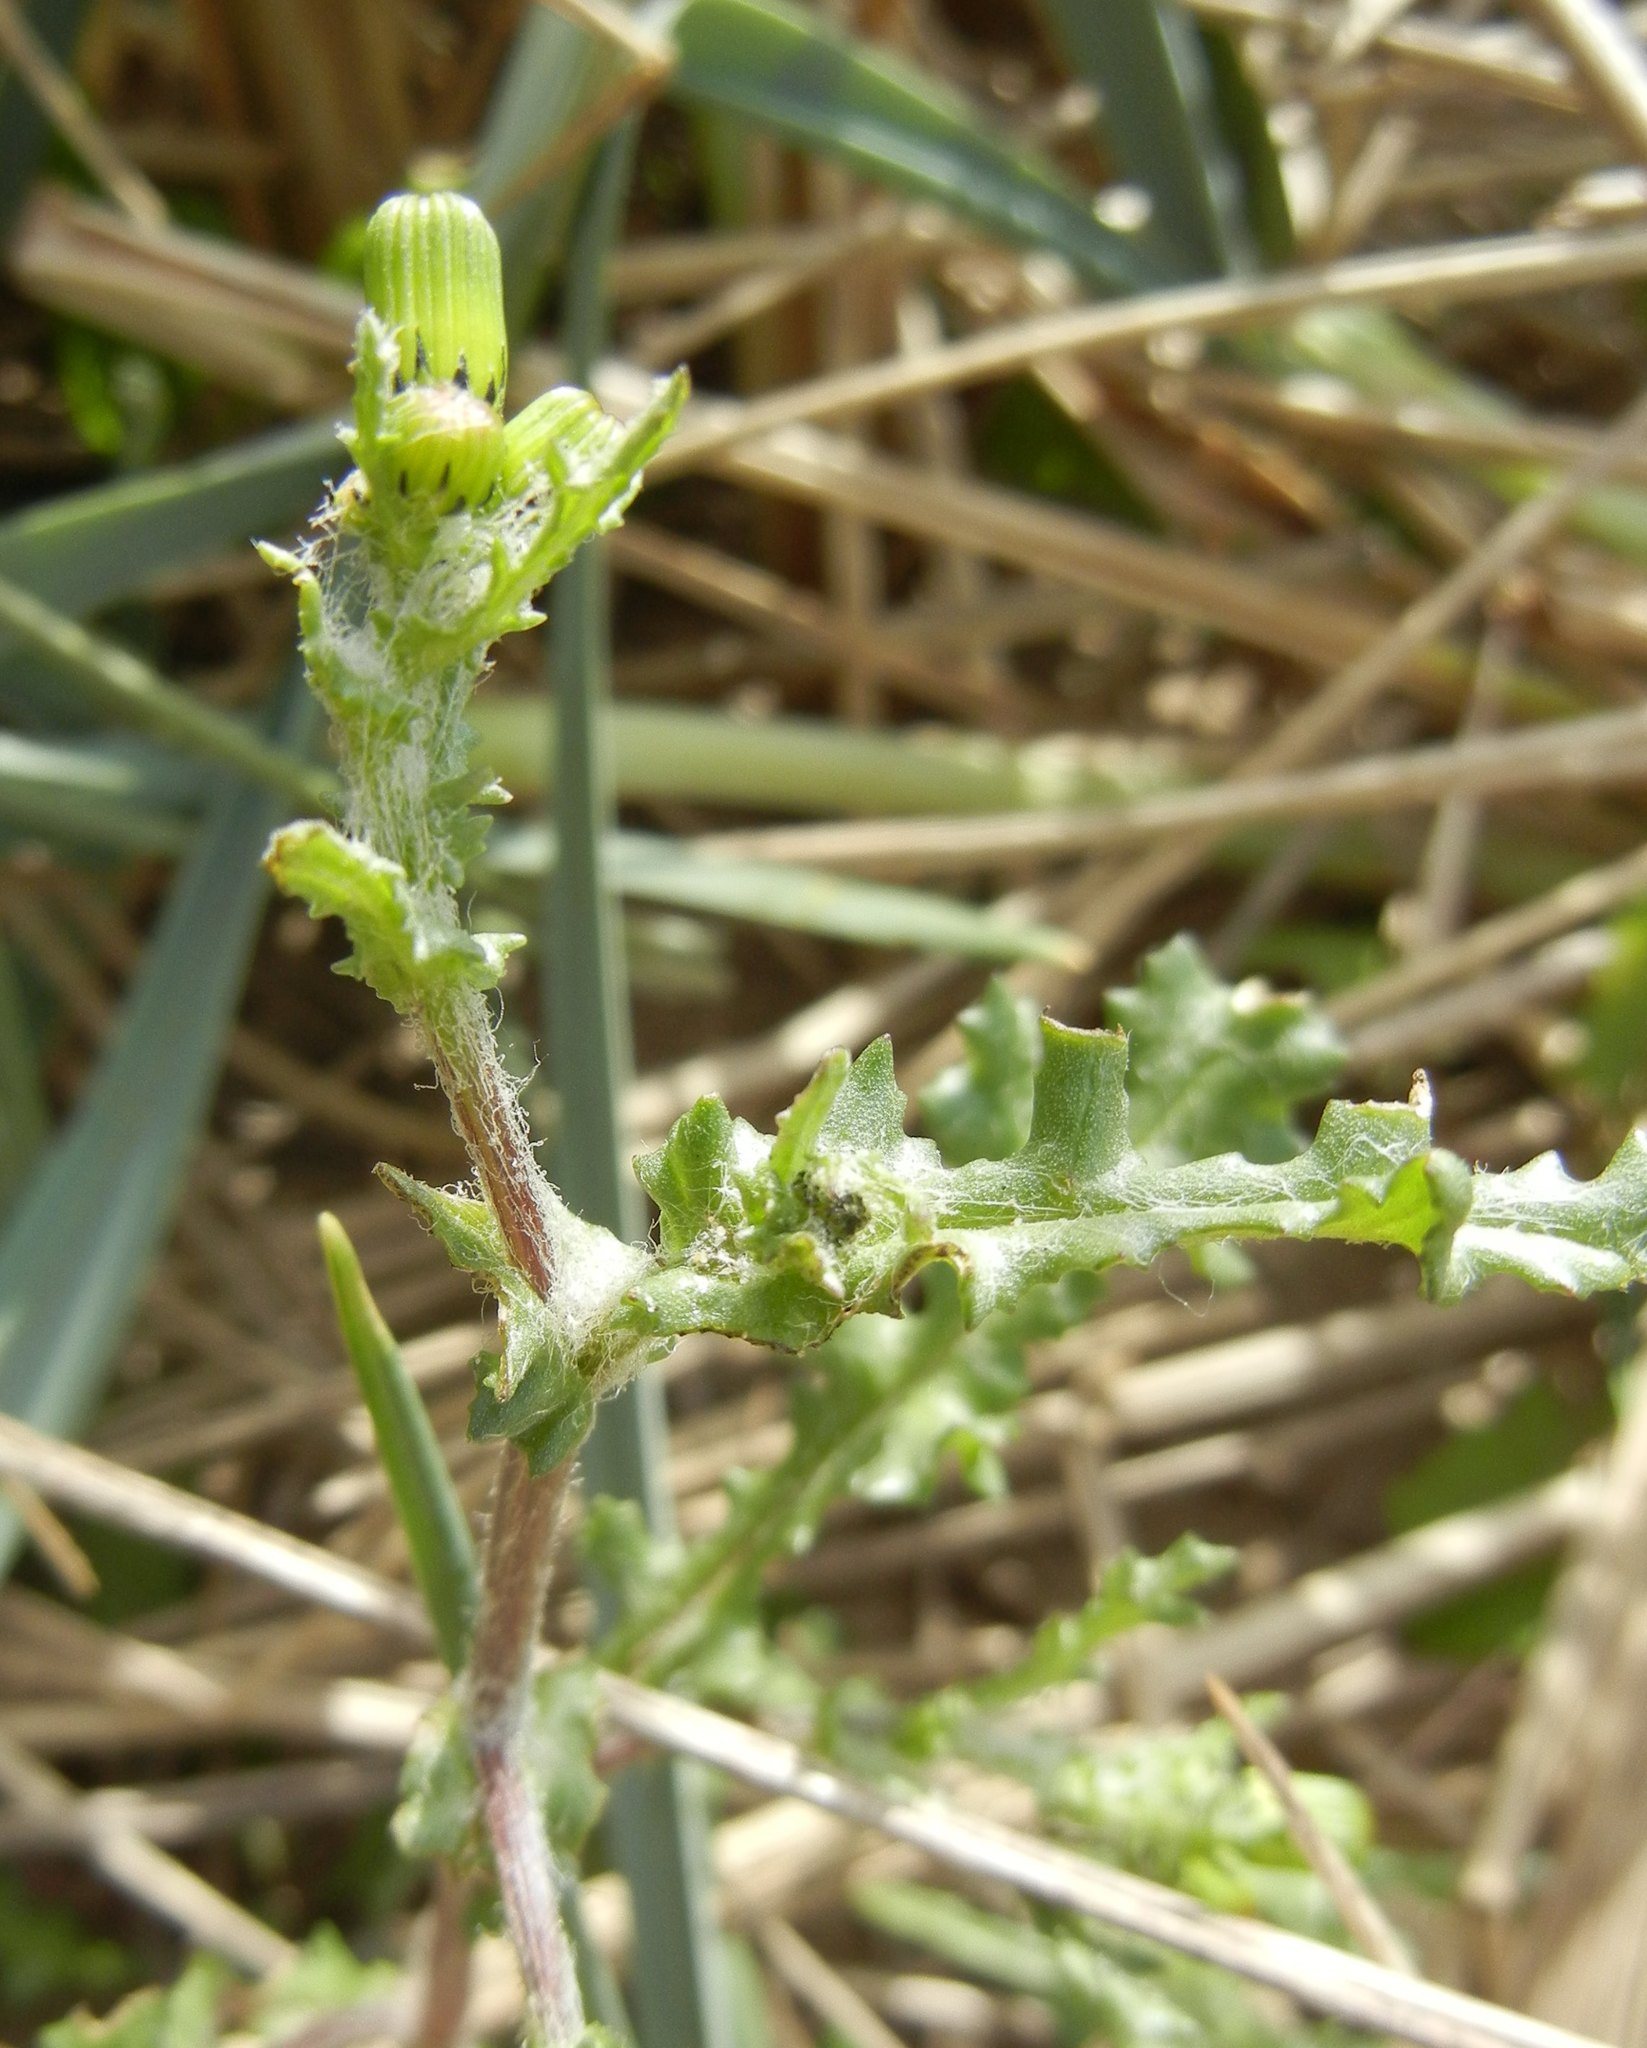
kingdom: Plantae
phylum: Tracheophyta
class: Magnoliopsida
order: Asterales
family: Asteraceae
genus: Senecio
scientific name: Senecio vulgaris
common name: Old-man-in-the-spring
